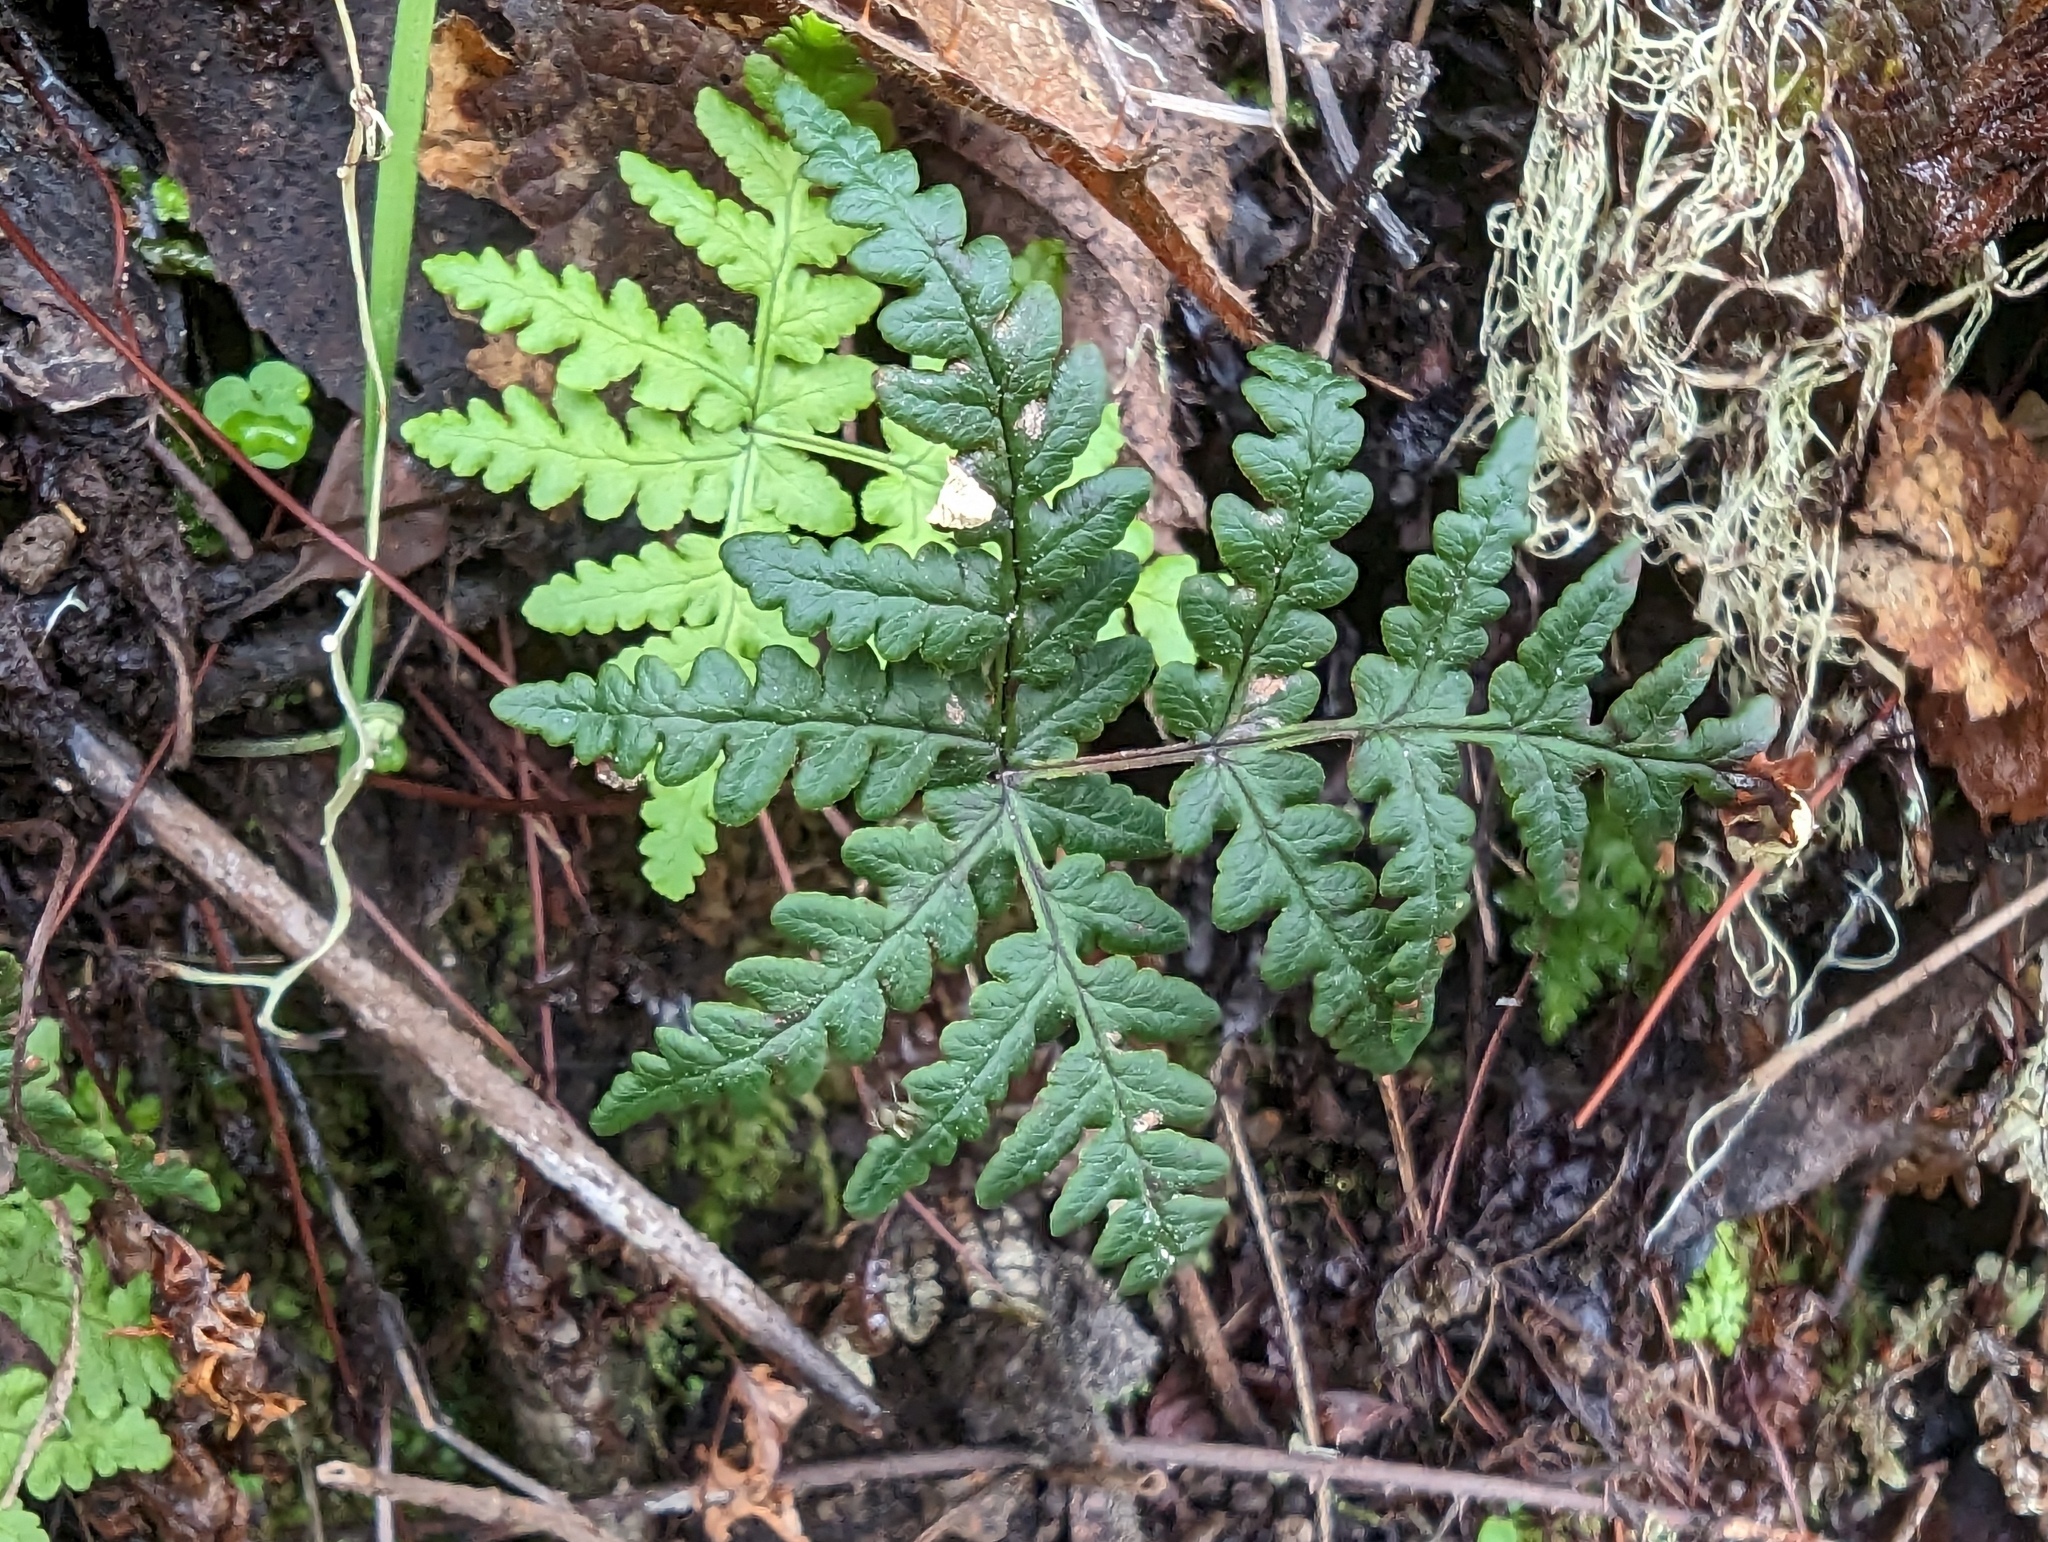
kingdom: Plantae
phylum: Tracheophyta
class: Polypodiopsida
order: Polypodiales
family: Pteridaceae
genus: Pentagramma
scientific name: Pentagramma triangularis
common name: Gold fern
